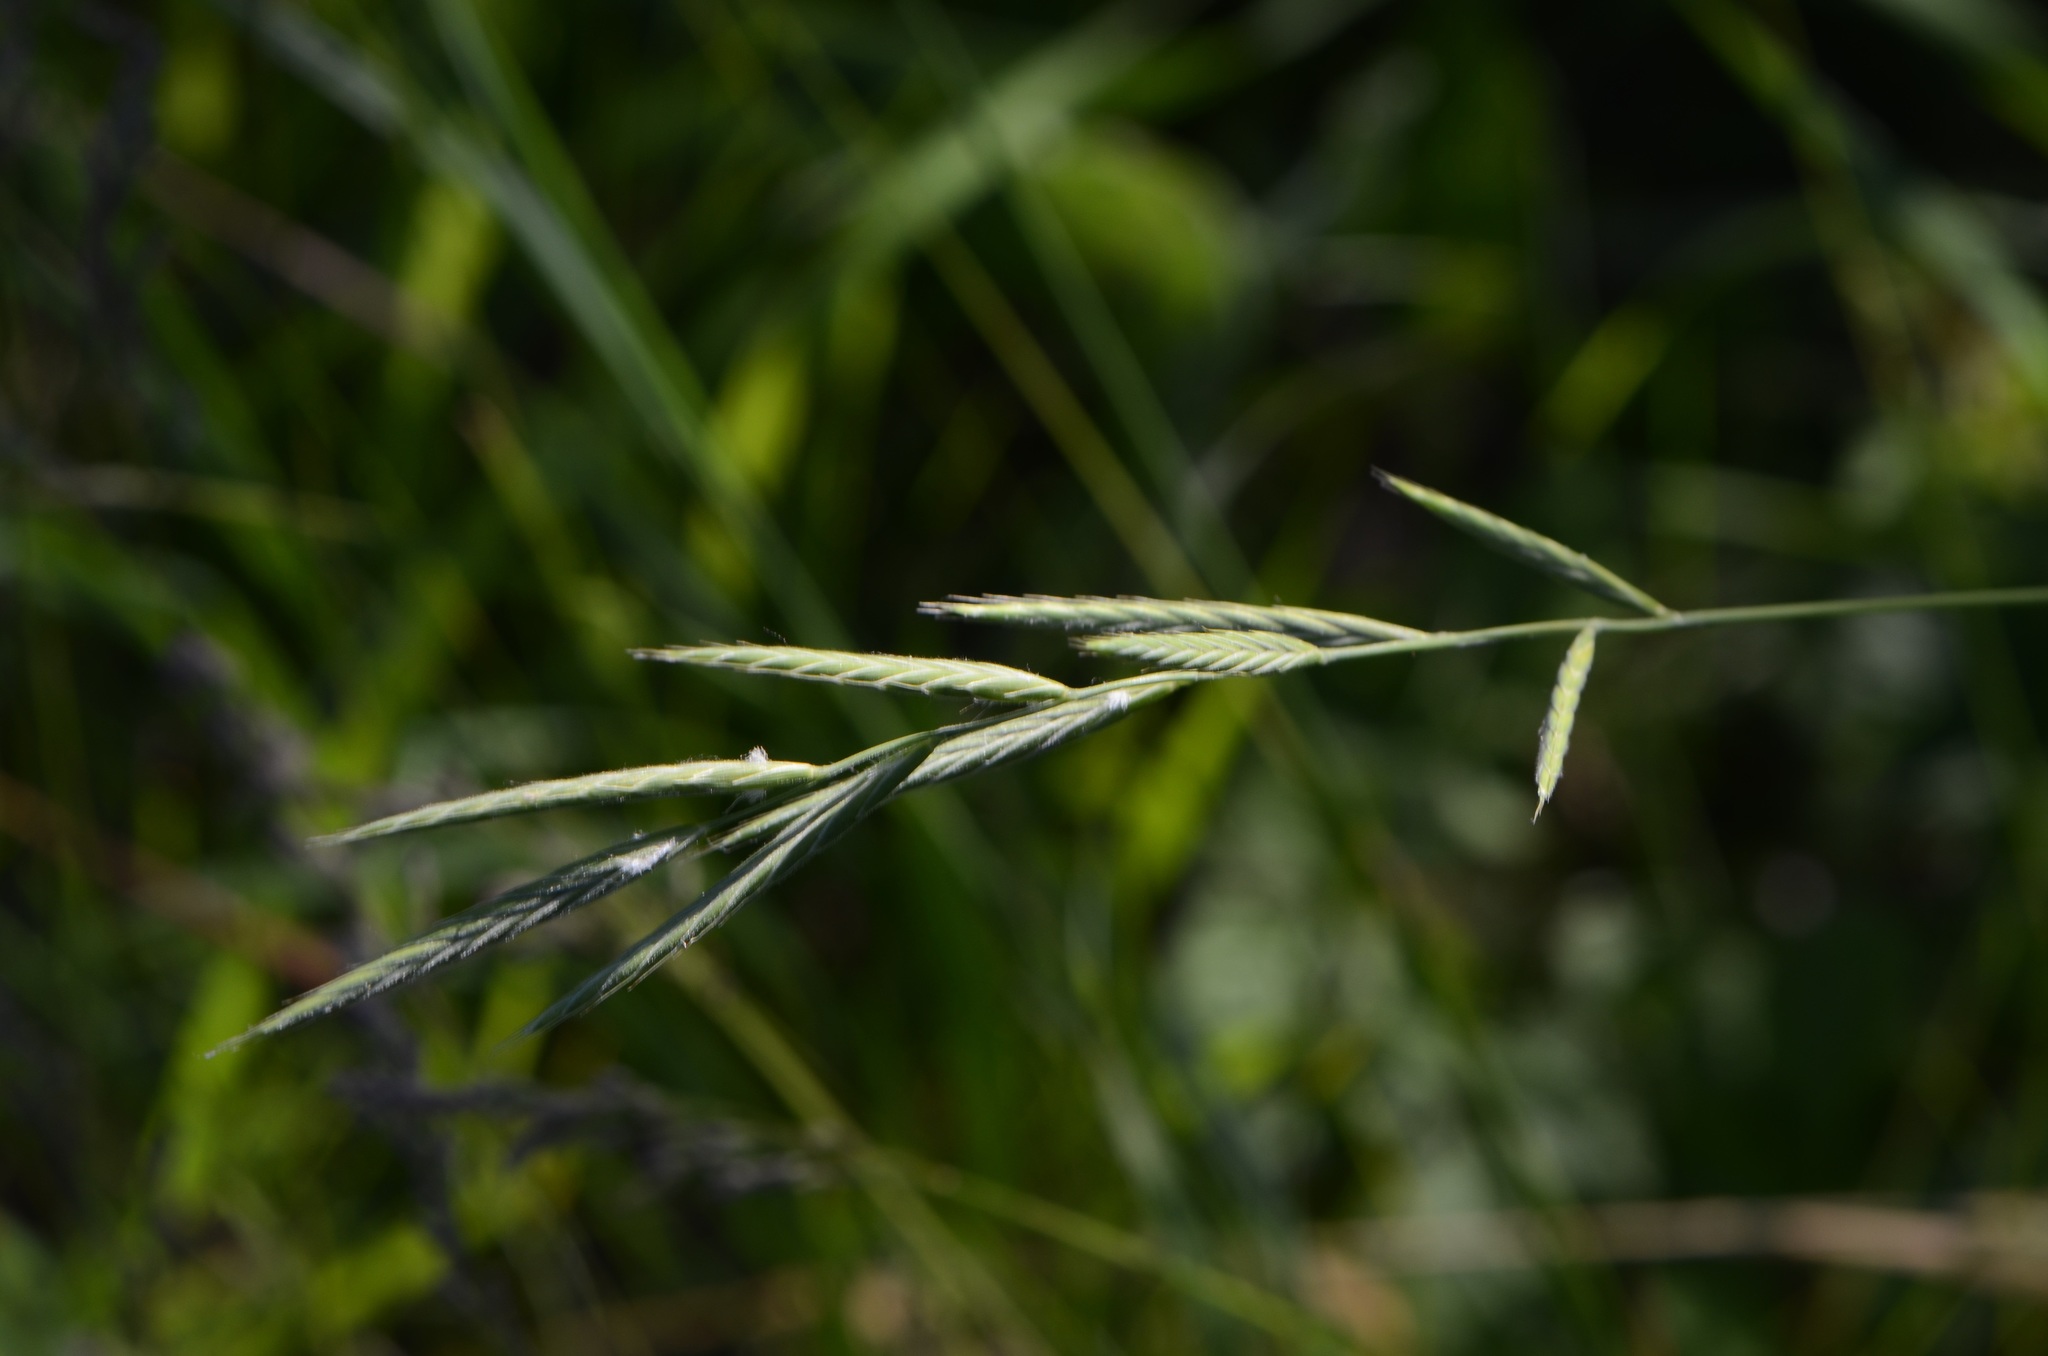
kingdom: Plantae
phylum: Tracheophyta
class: Liliopsida
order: Poales
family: Poaceae
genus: Brachypodium
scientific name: Brachypodium pinnatum
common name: Tor grass
